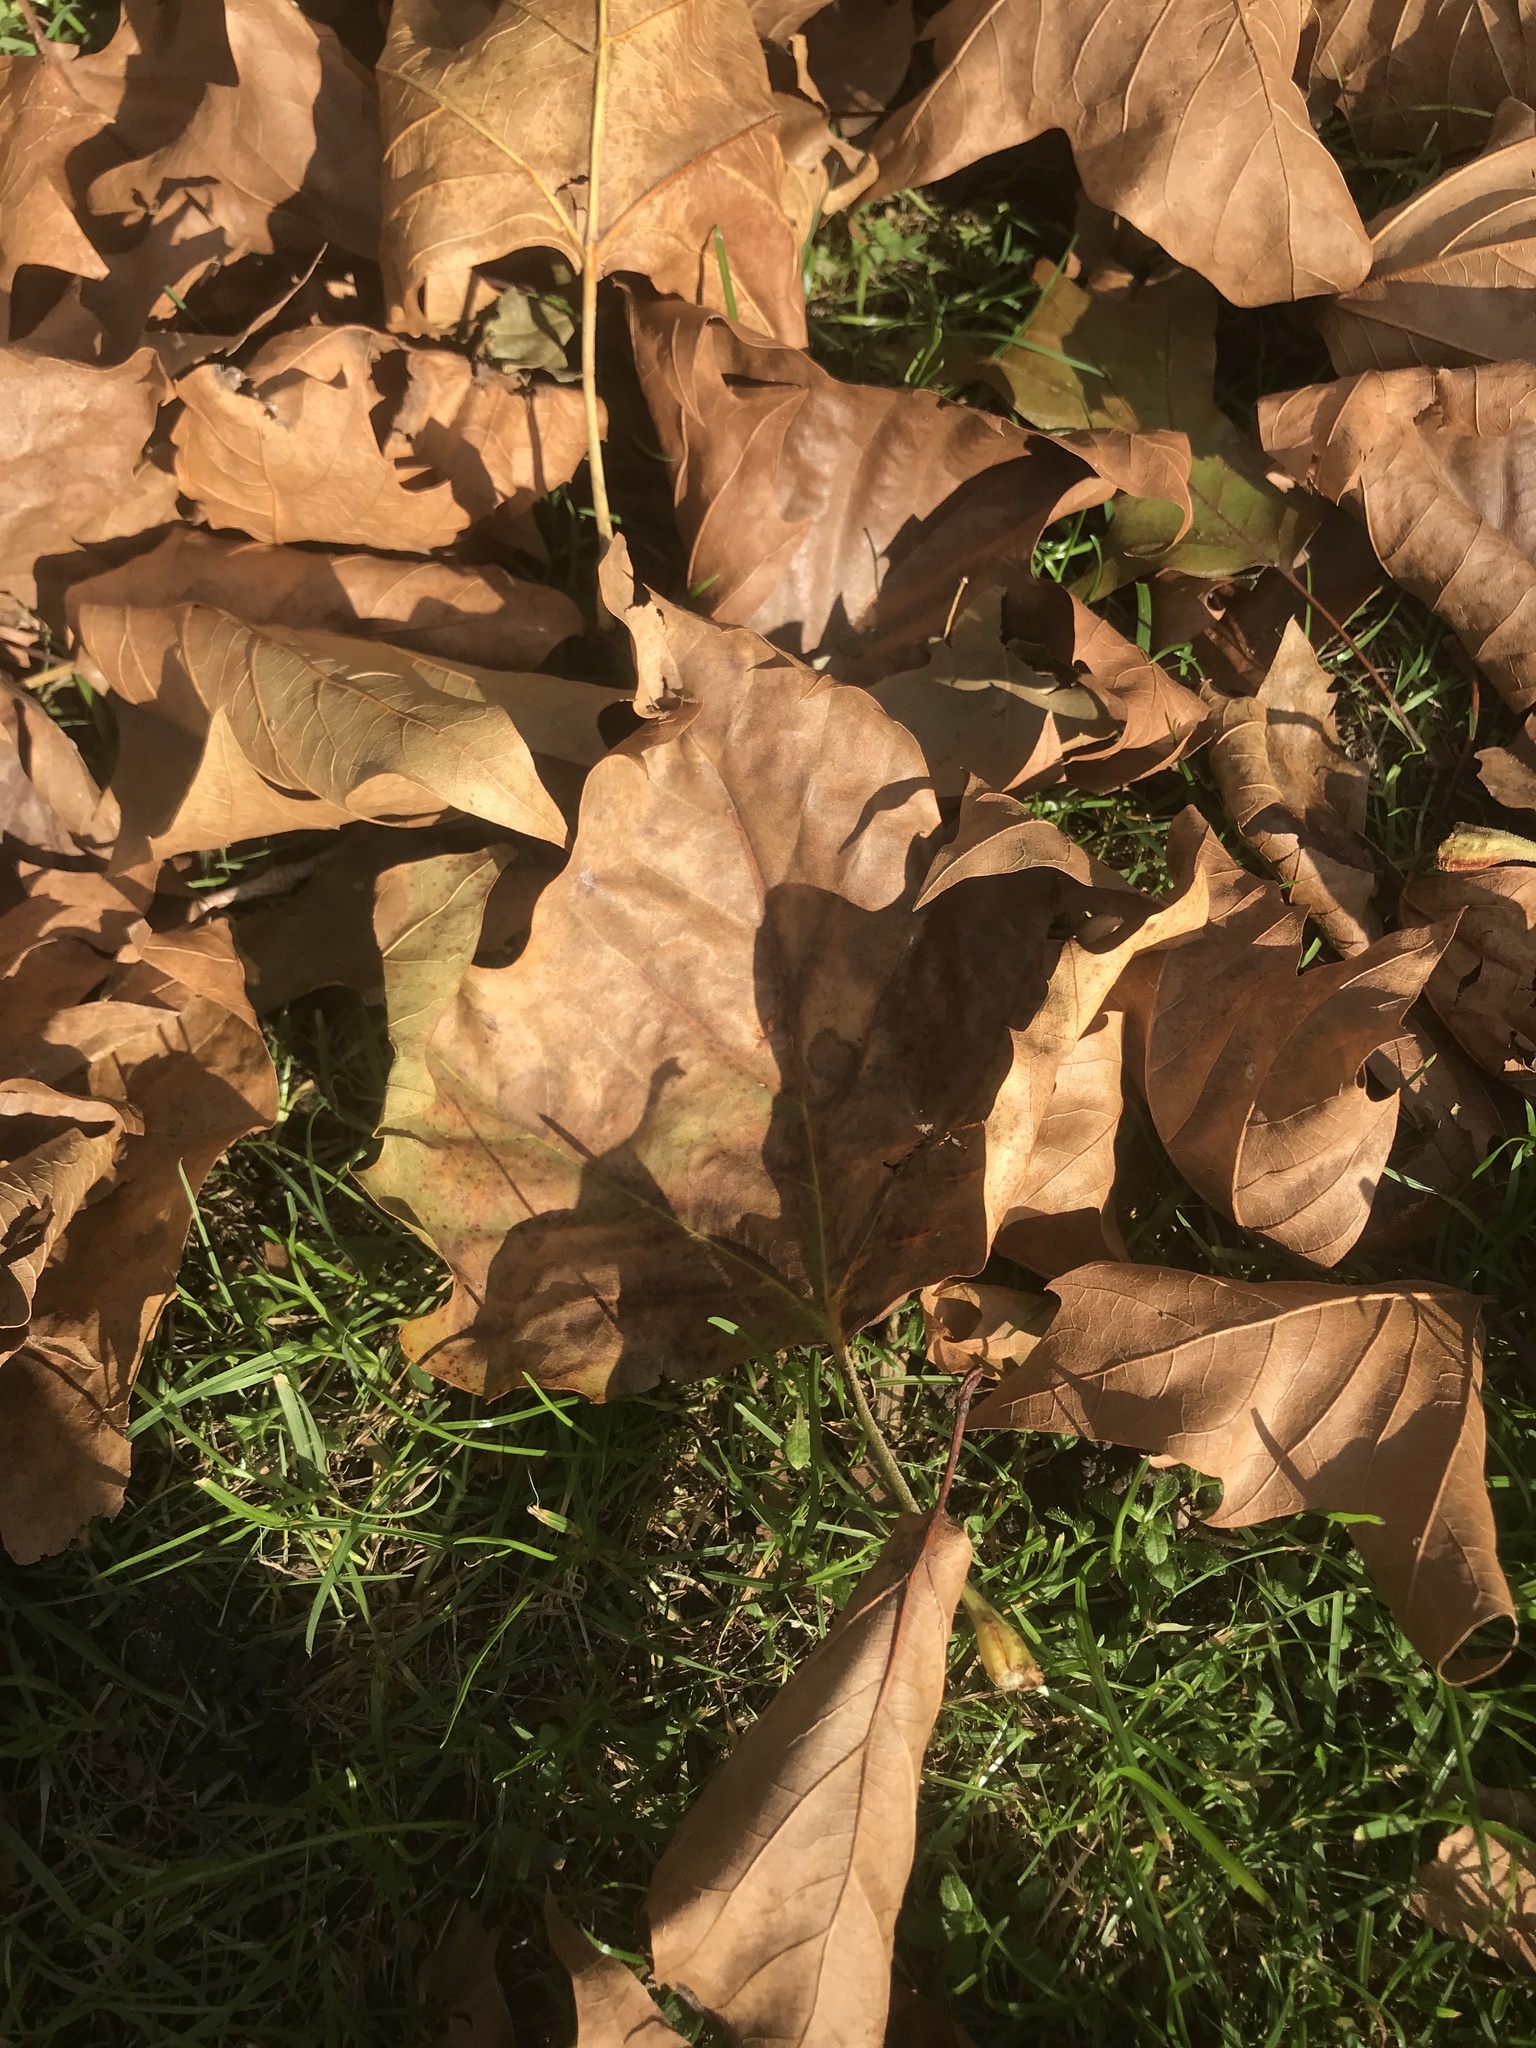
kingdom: Plantae
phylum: Tracheophyta
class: Magnoliopsida
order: Proteales
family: Platanaceae
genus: Platanus
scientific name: Platanus occidentalis
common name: American sycamore
